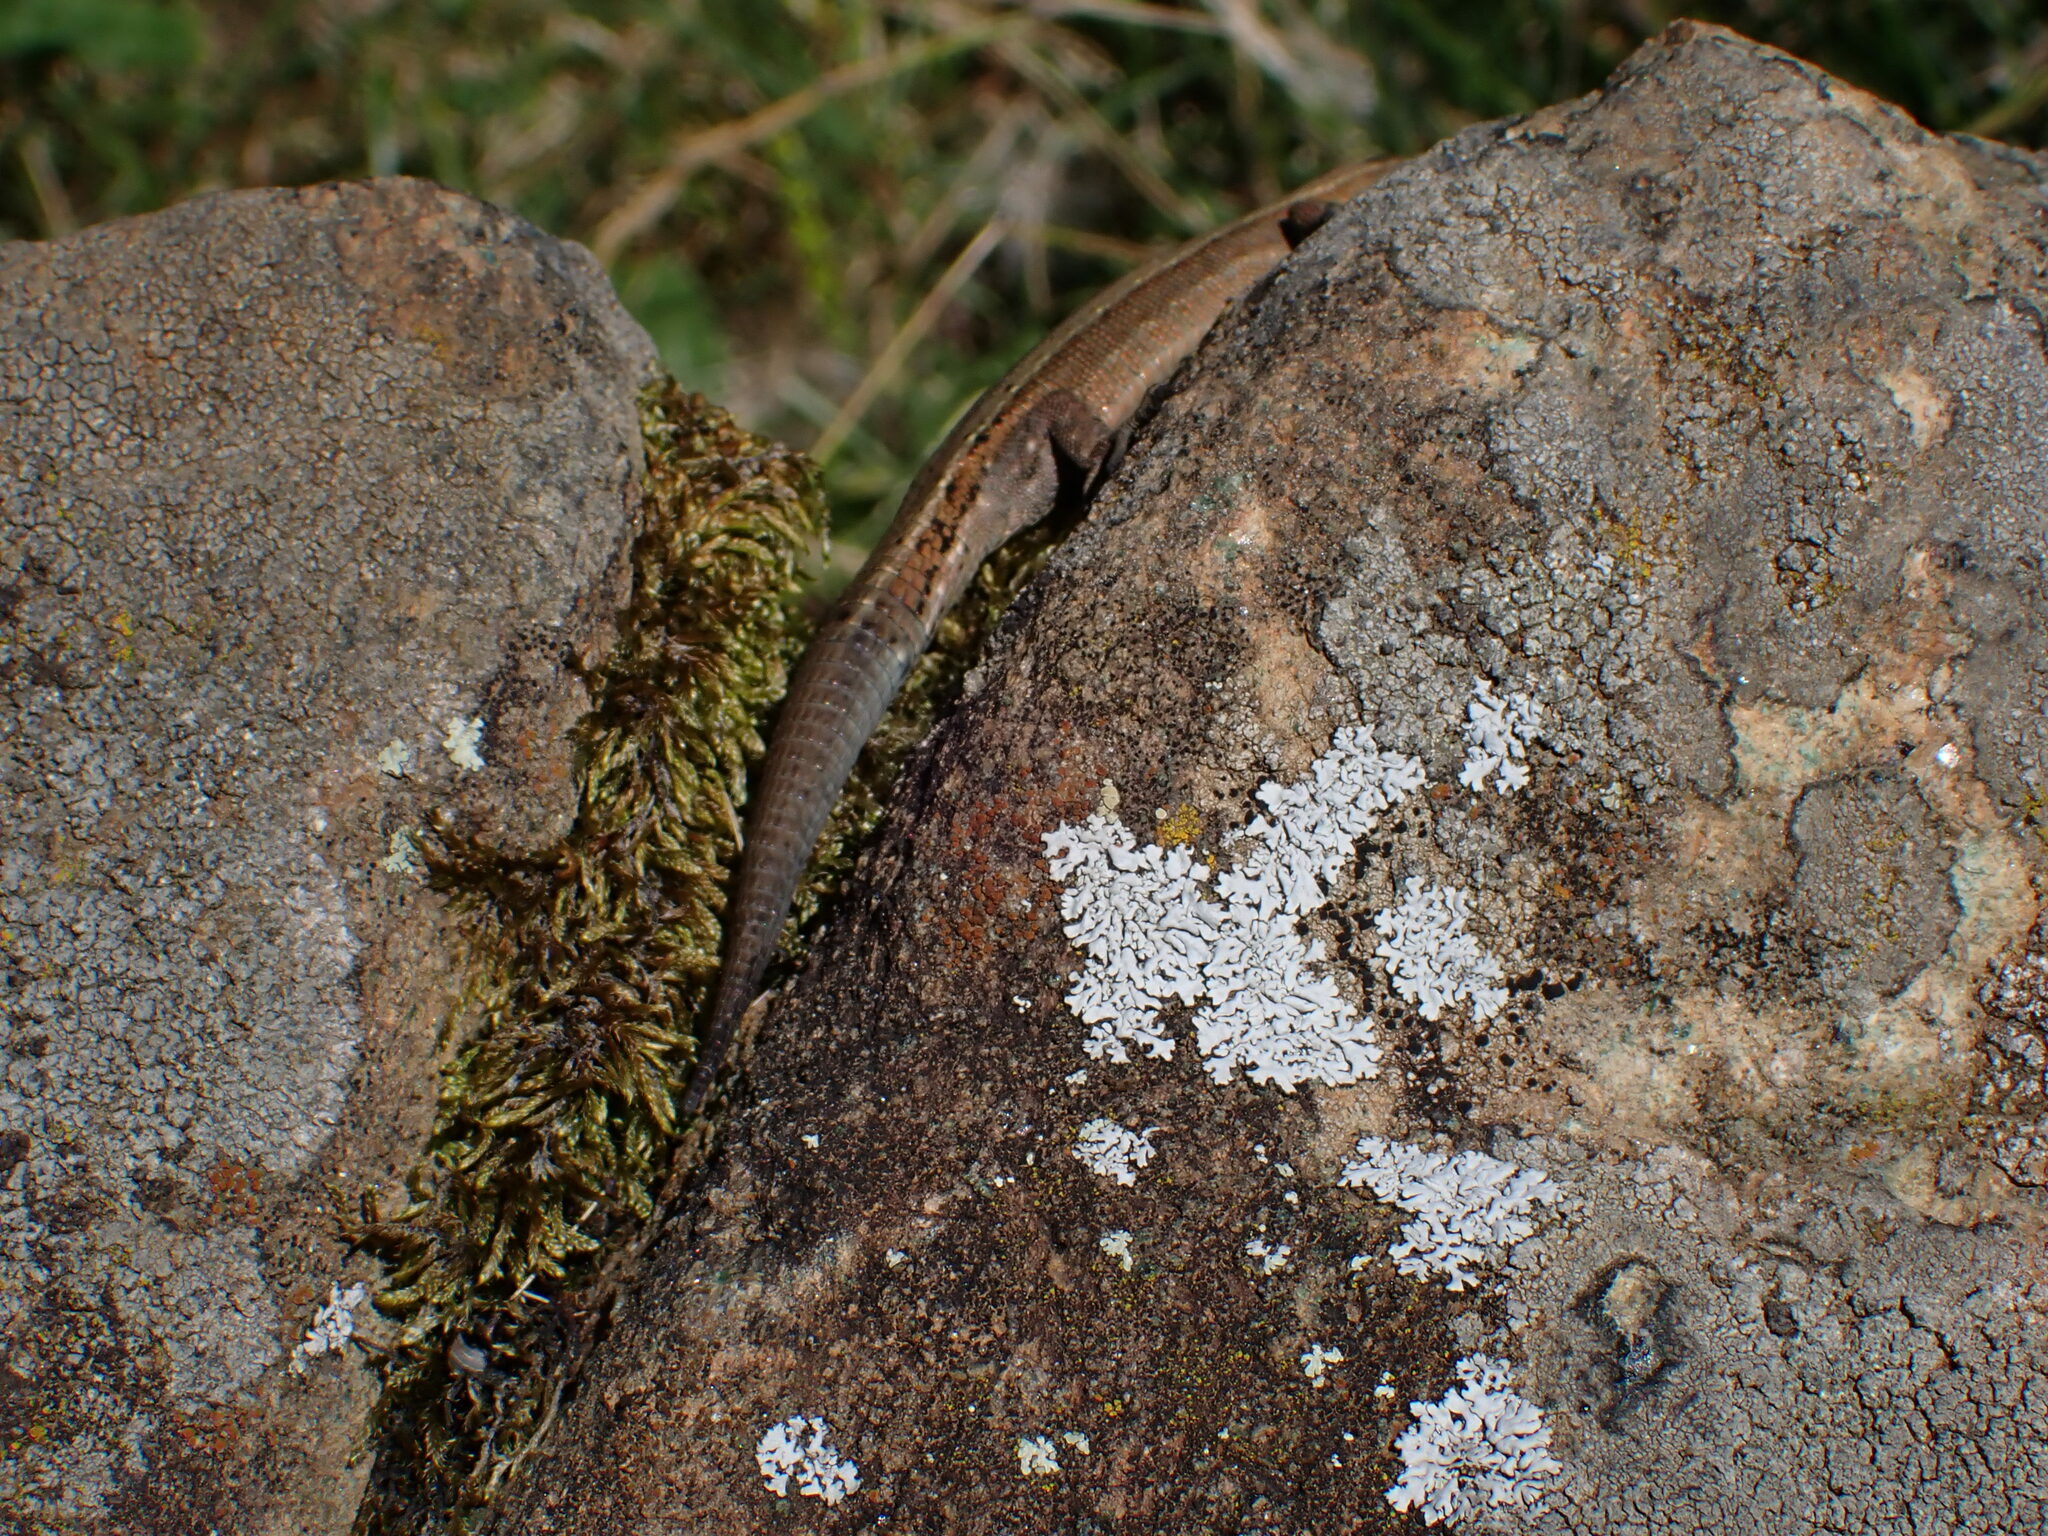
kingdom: Animalia
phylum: Chordata
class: Squamata
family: Lacertidae
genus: Zootoca
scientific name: Zootoca vivipara
